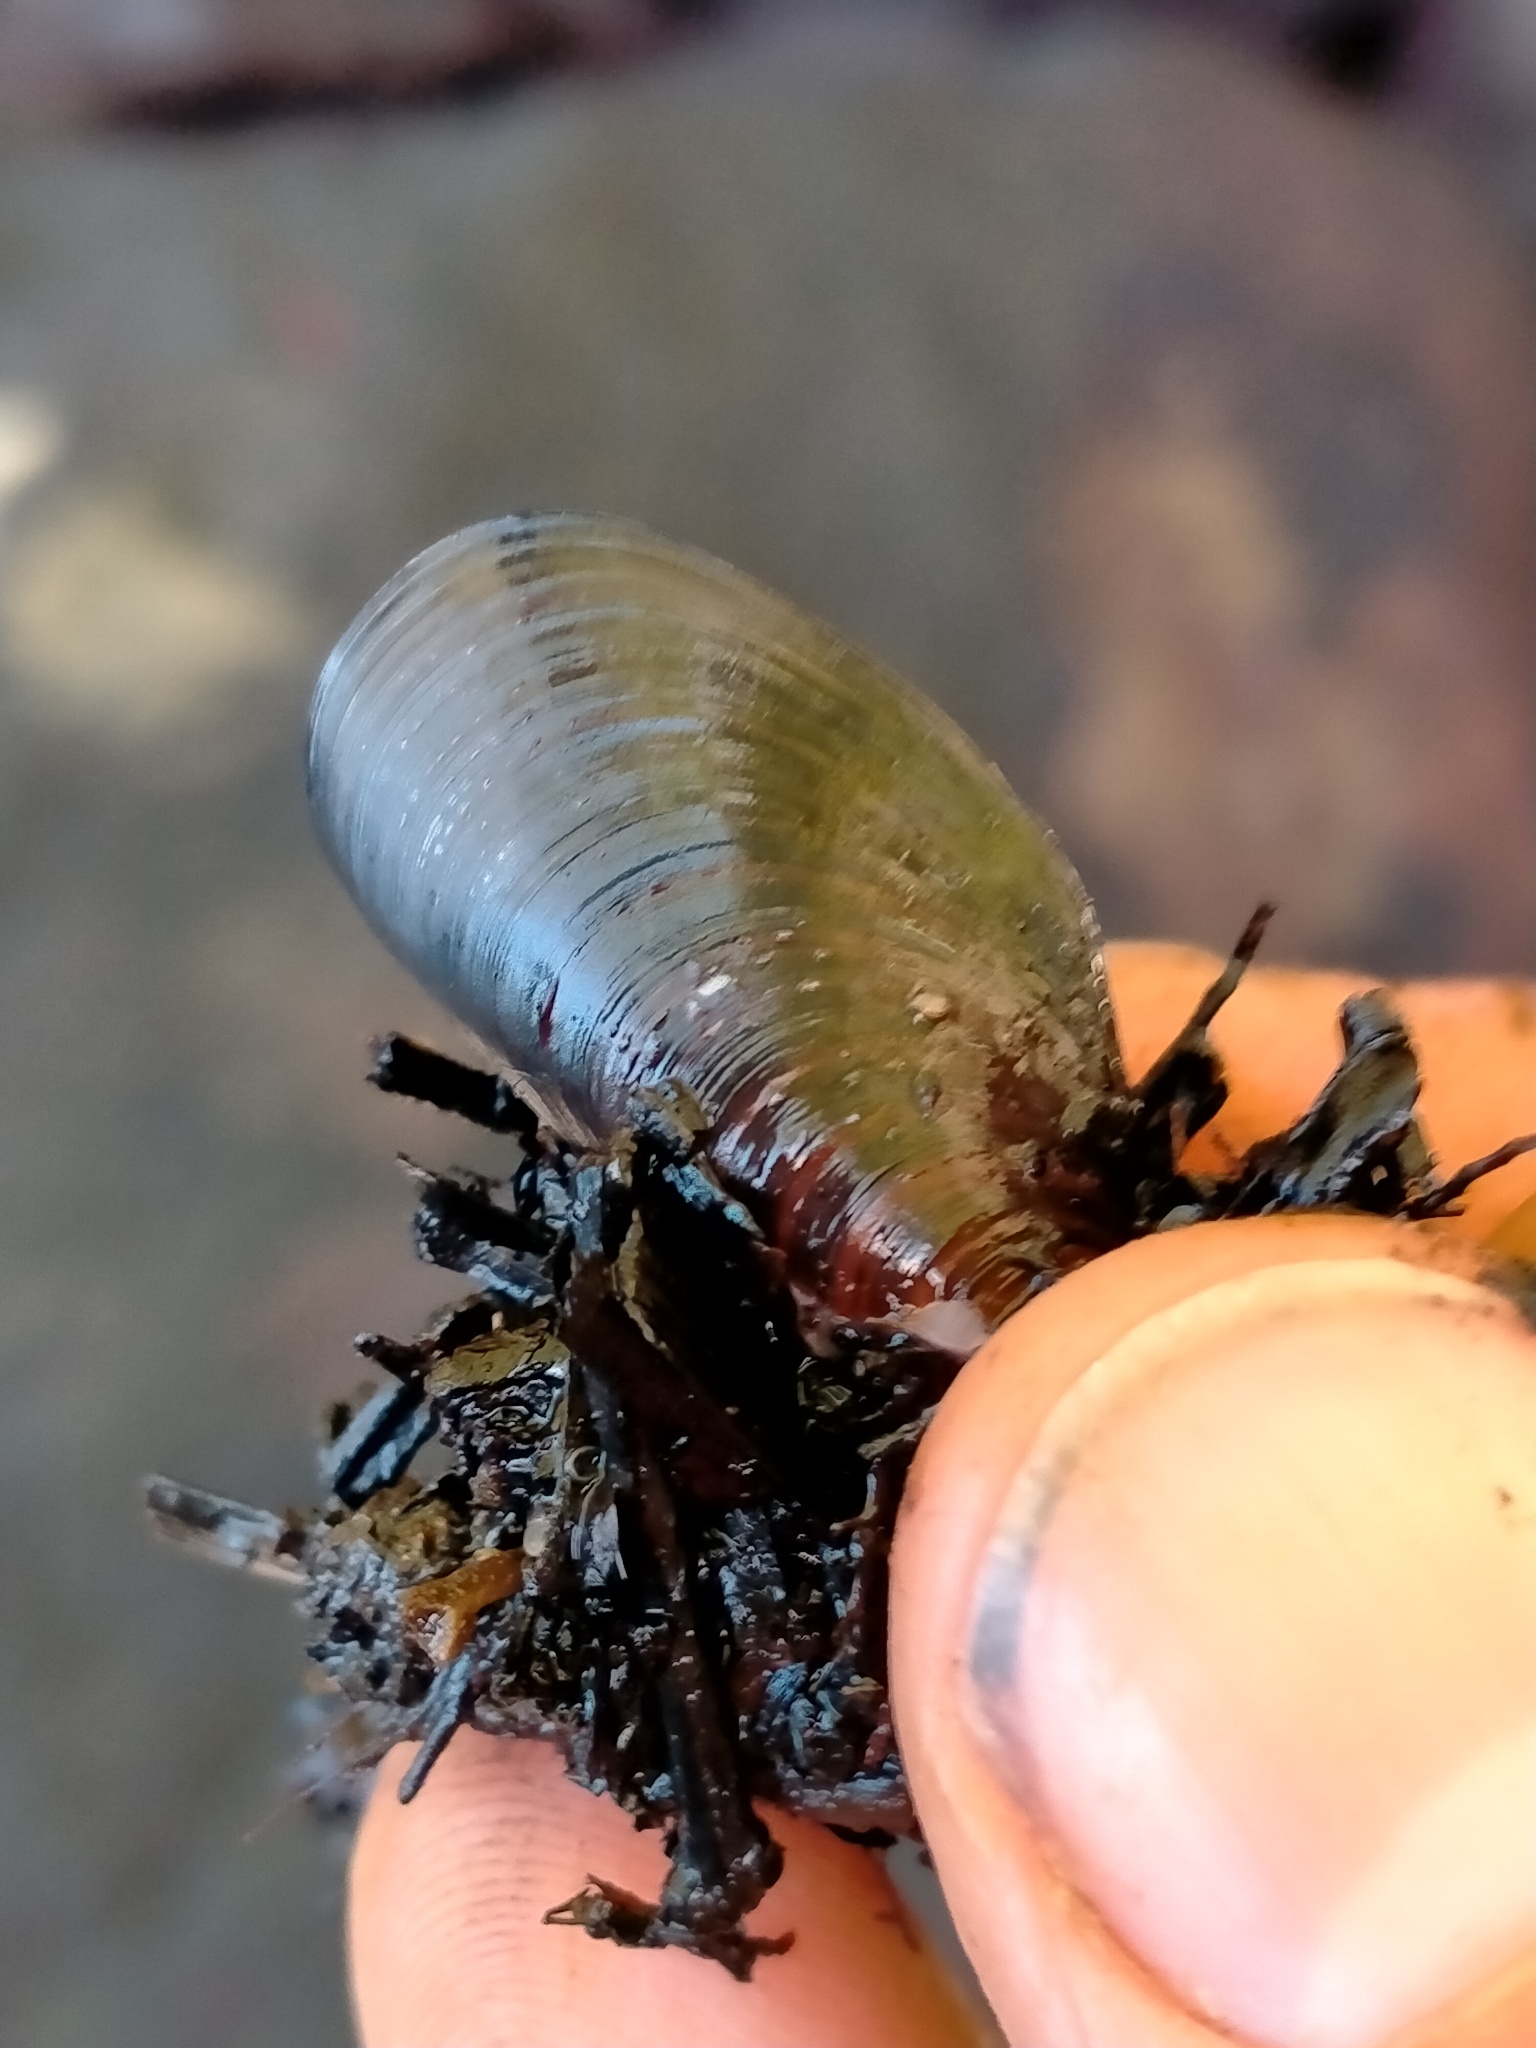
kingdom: Animalia
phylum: Mollusca
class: Bivalvia
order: Mytilida
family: Mytilidae
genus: Xenostrobus
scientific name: Xenostrobus neozelanicus
